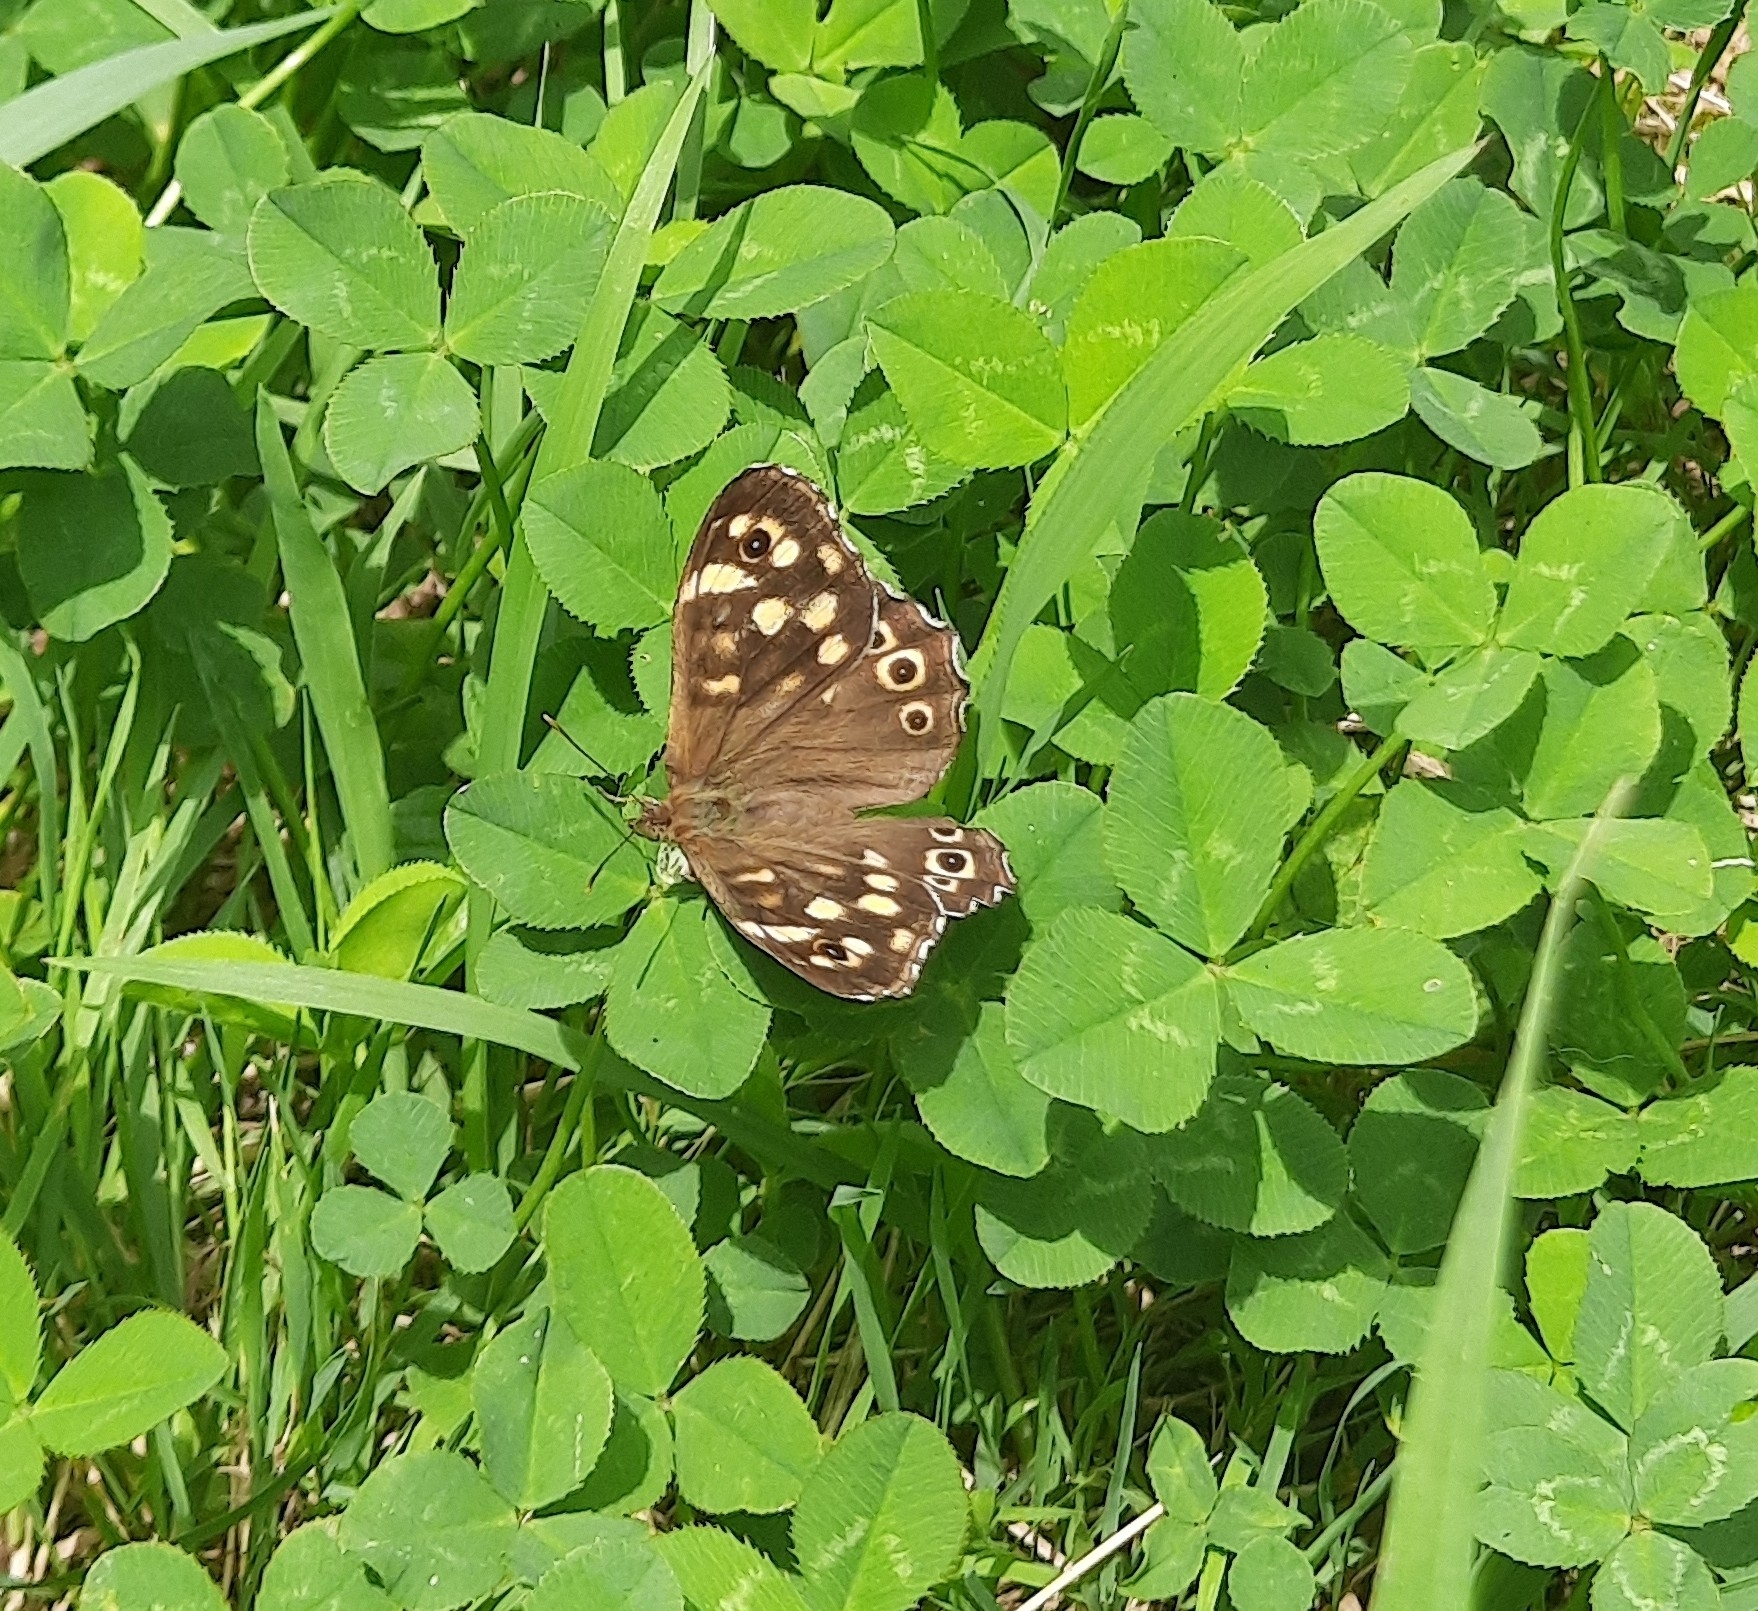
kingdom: Animalia
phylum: Arthropoda
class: Insecta
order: Lepidoptera
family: Nymphalidae
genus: Pararge
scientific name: Pararge aegeria
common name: Speckled wood
